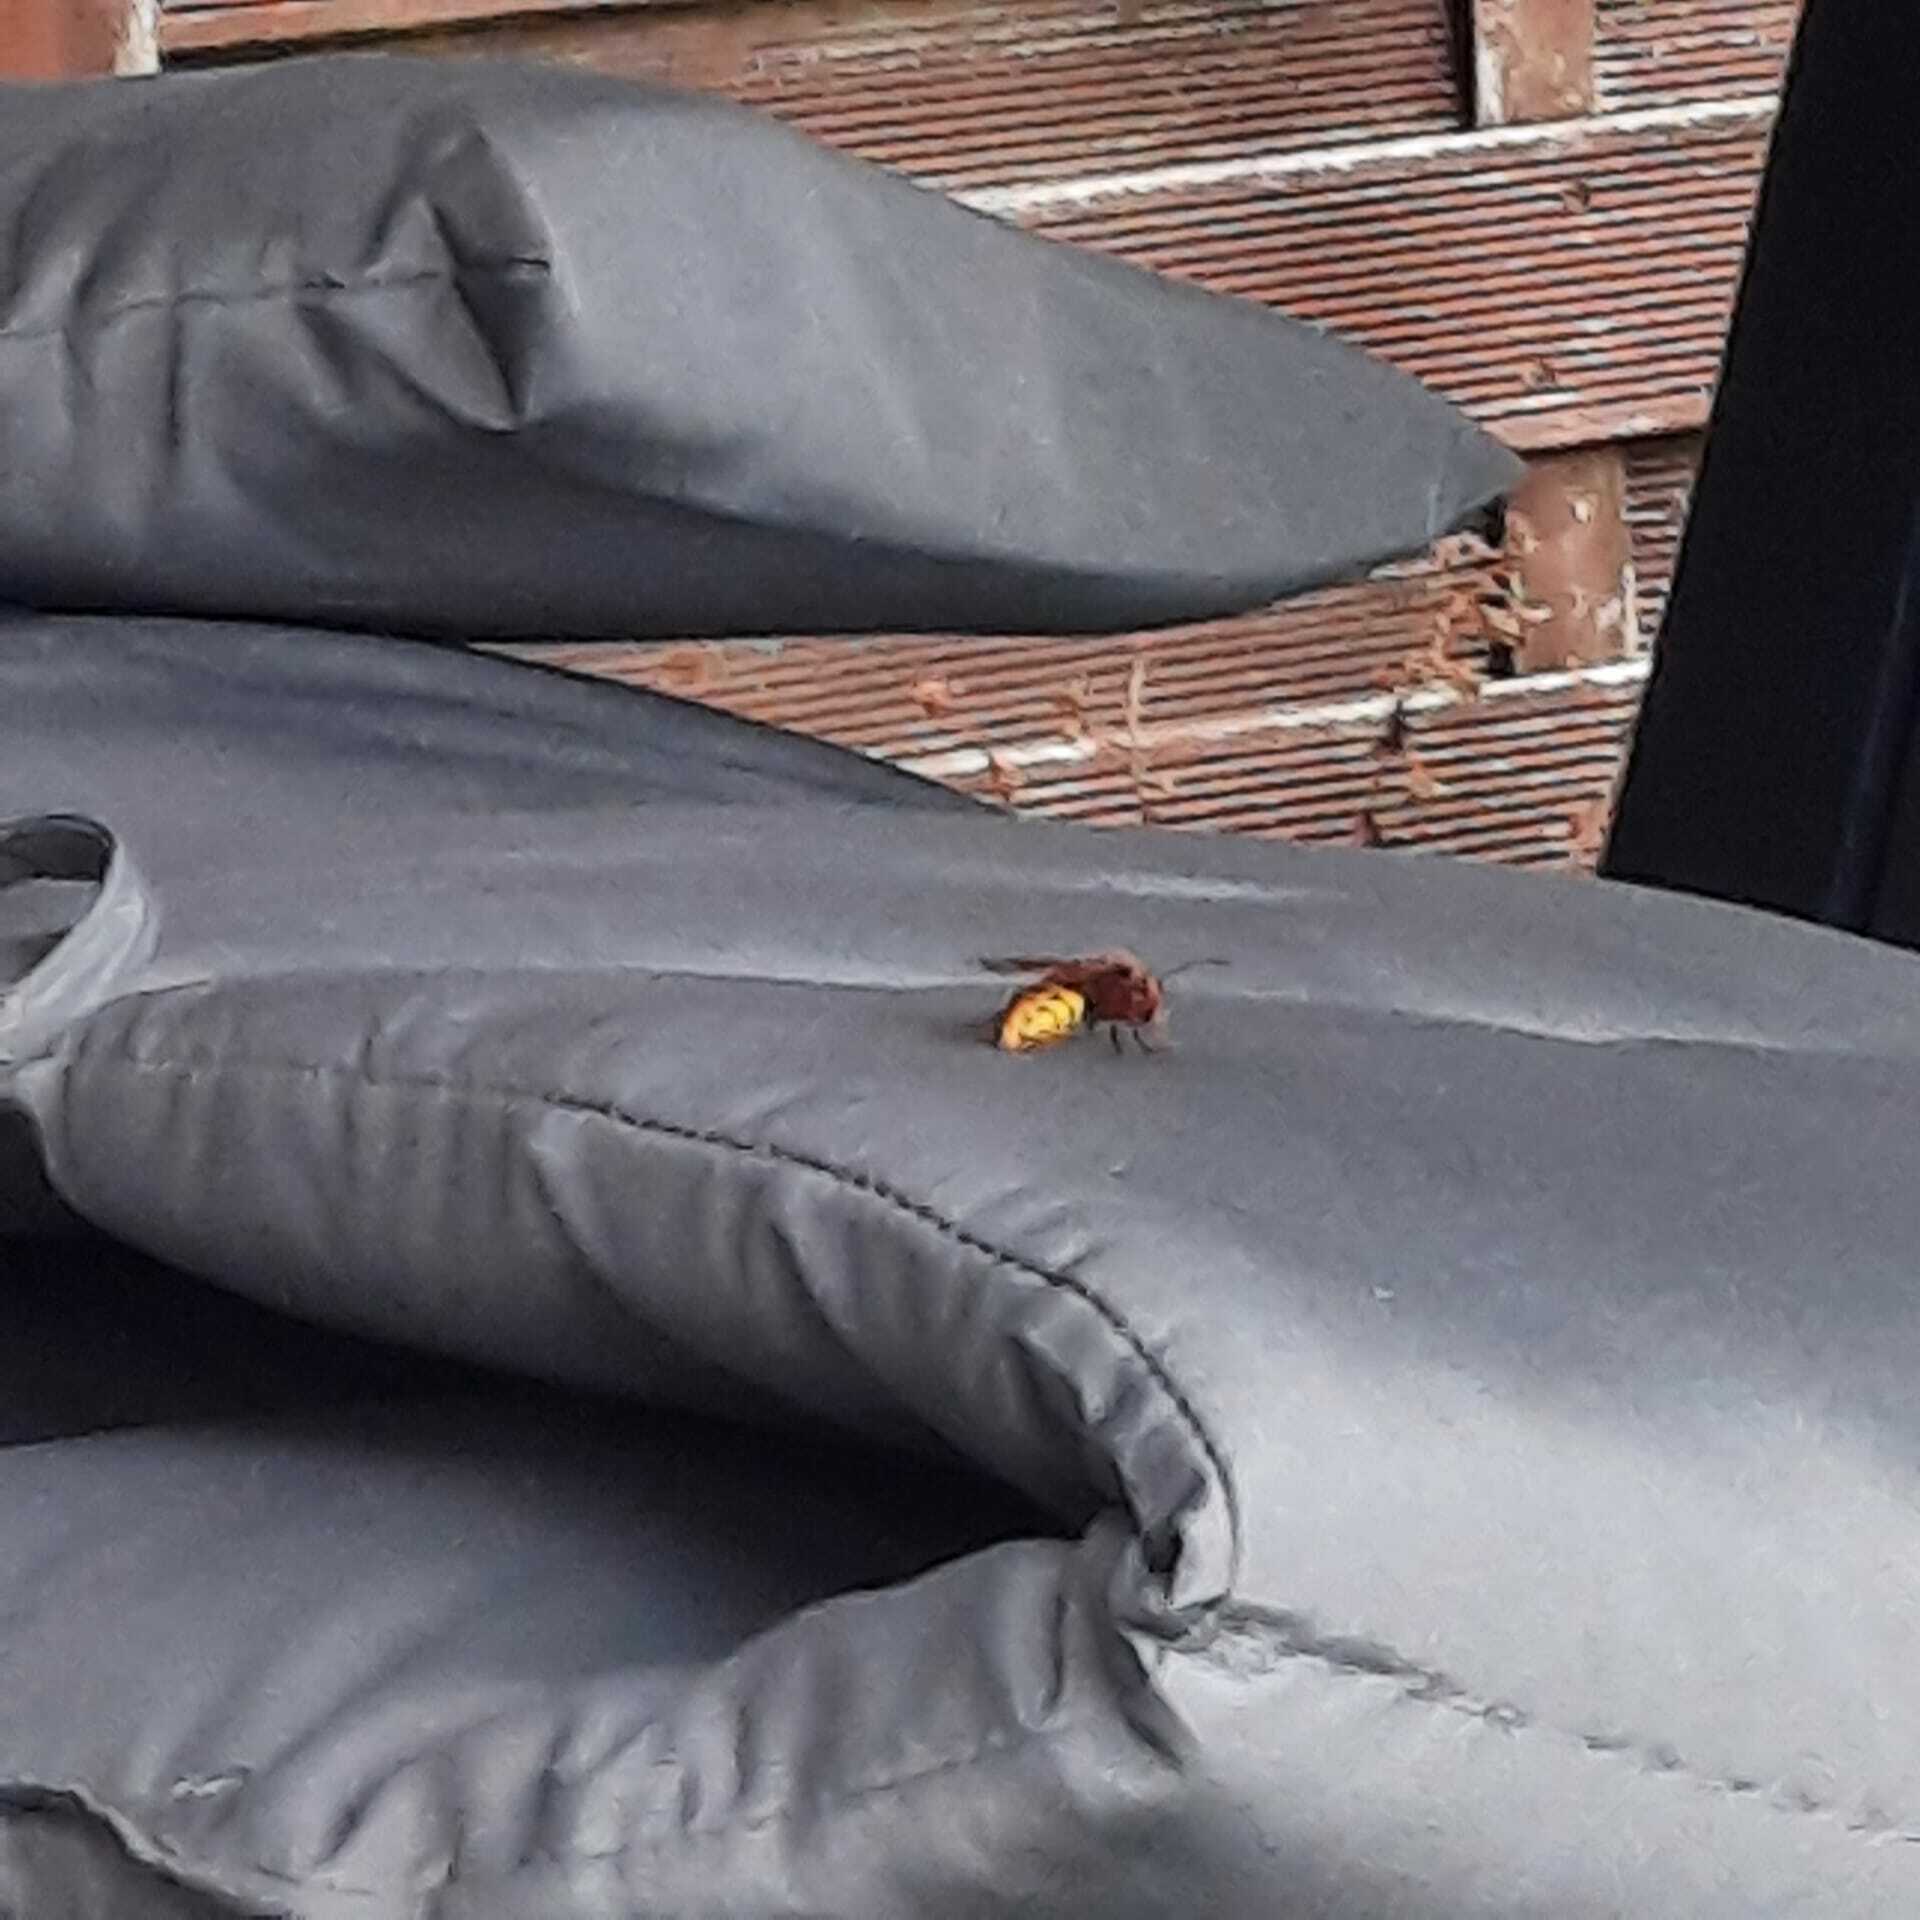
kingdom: Animalia
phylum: Arthropoda
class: Insecta
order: Hymenoptera
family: Vespidae
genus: Vespa
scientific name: Vespa crabro
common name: Hornet
